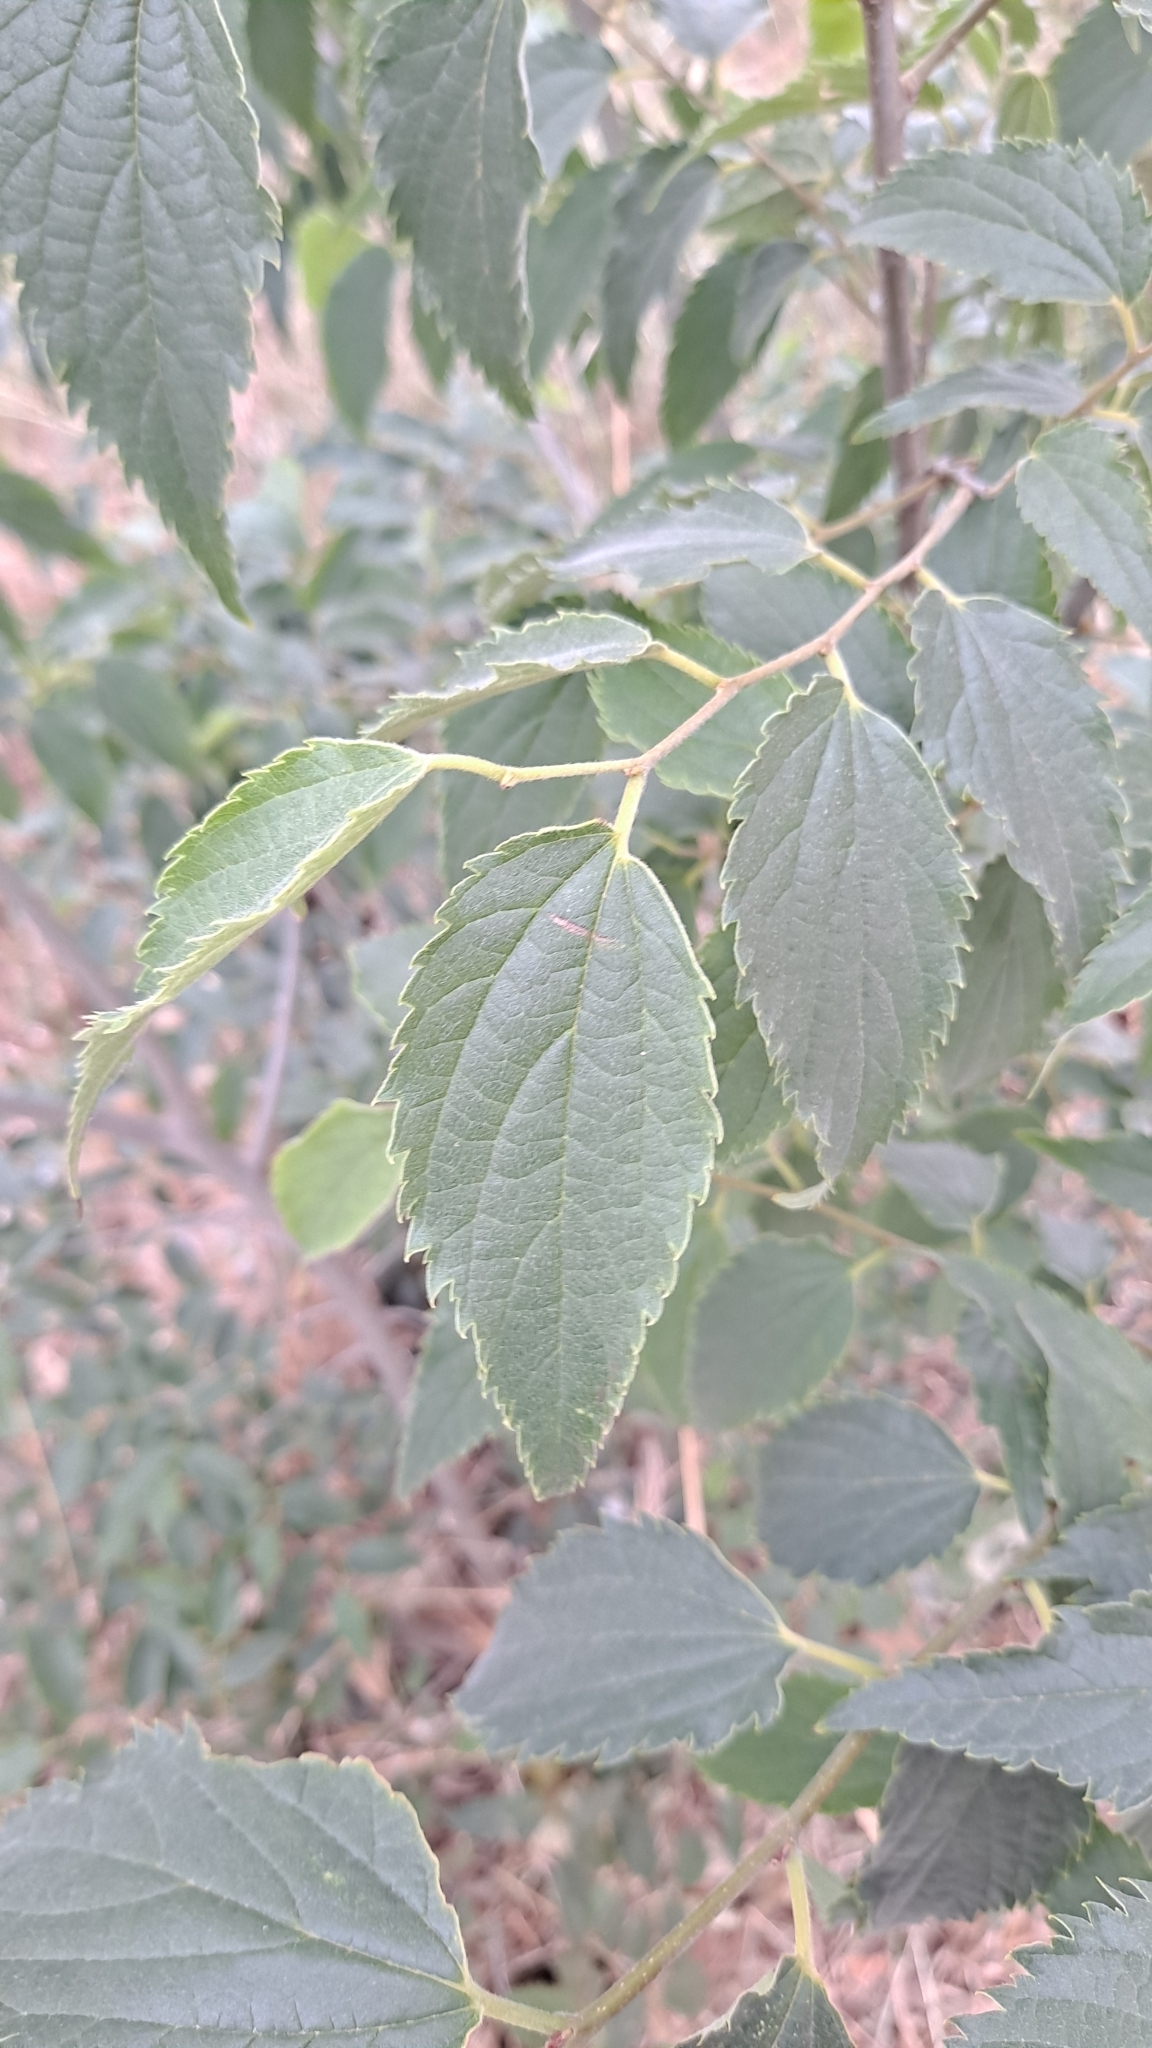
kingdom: Plantae
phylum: Tracheophyta
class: Magnoliopsida
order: Rosales
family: Cannabaceae
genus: Celtis
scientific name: Celtis australis
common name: European hackberry
